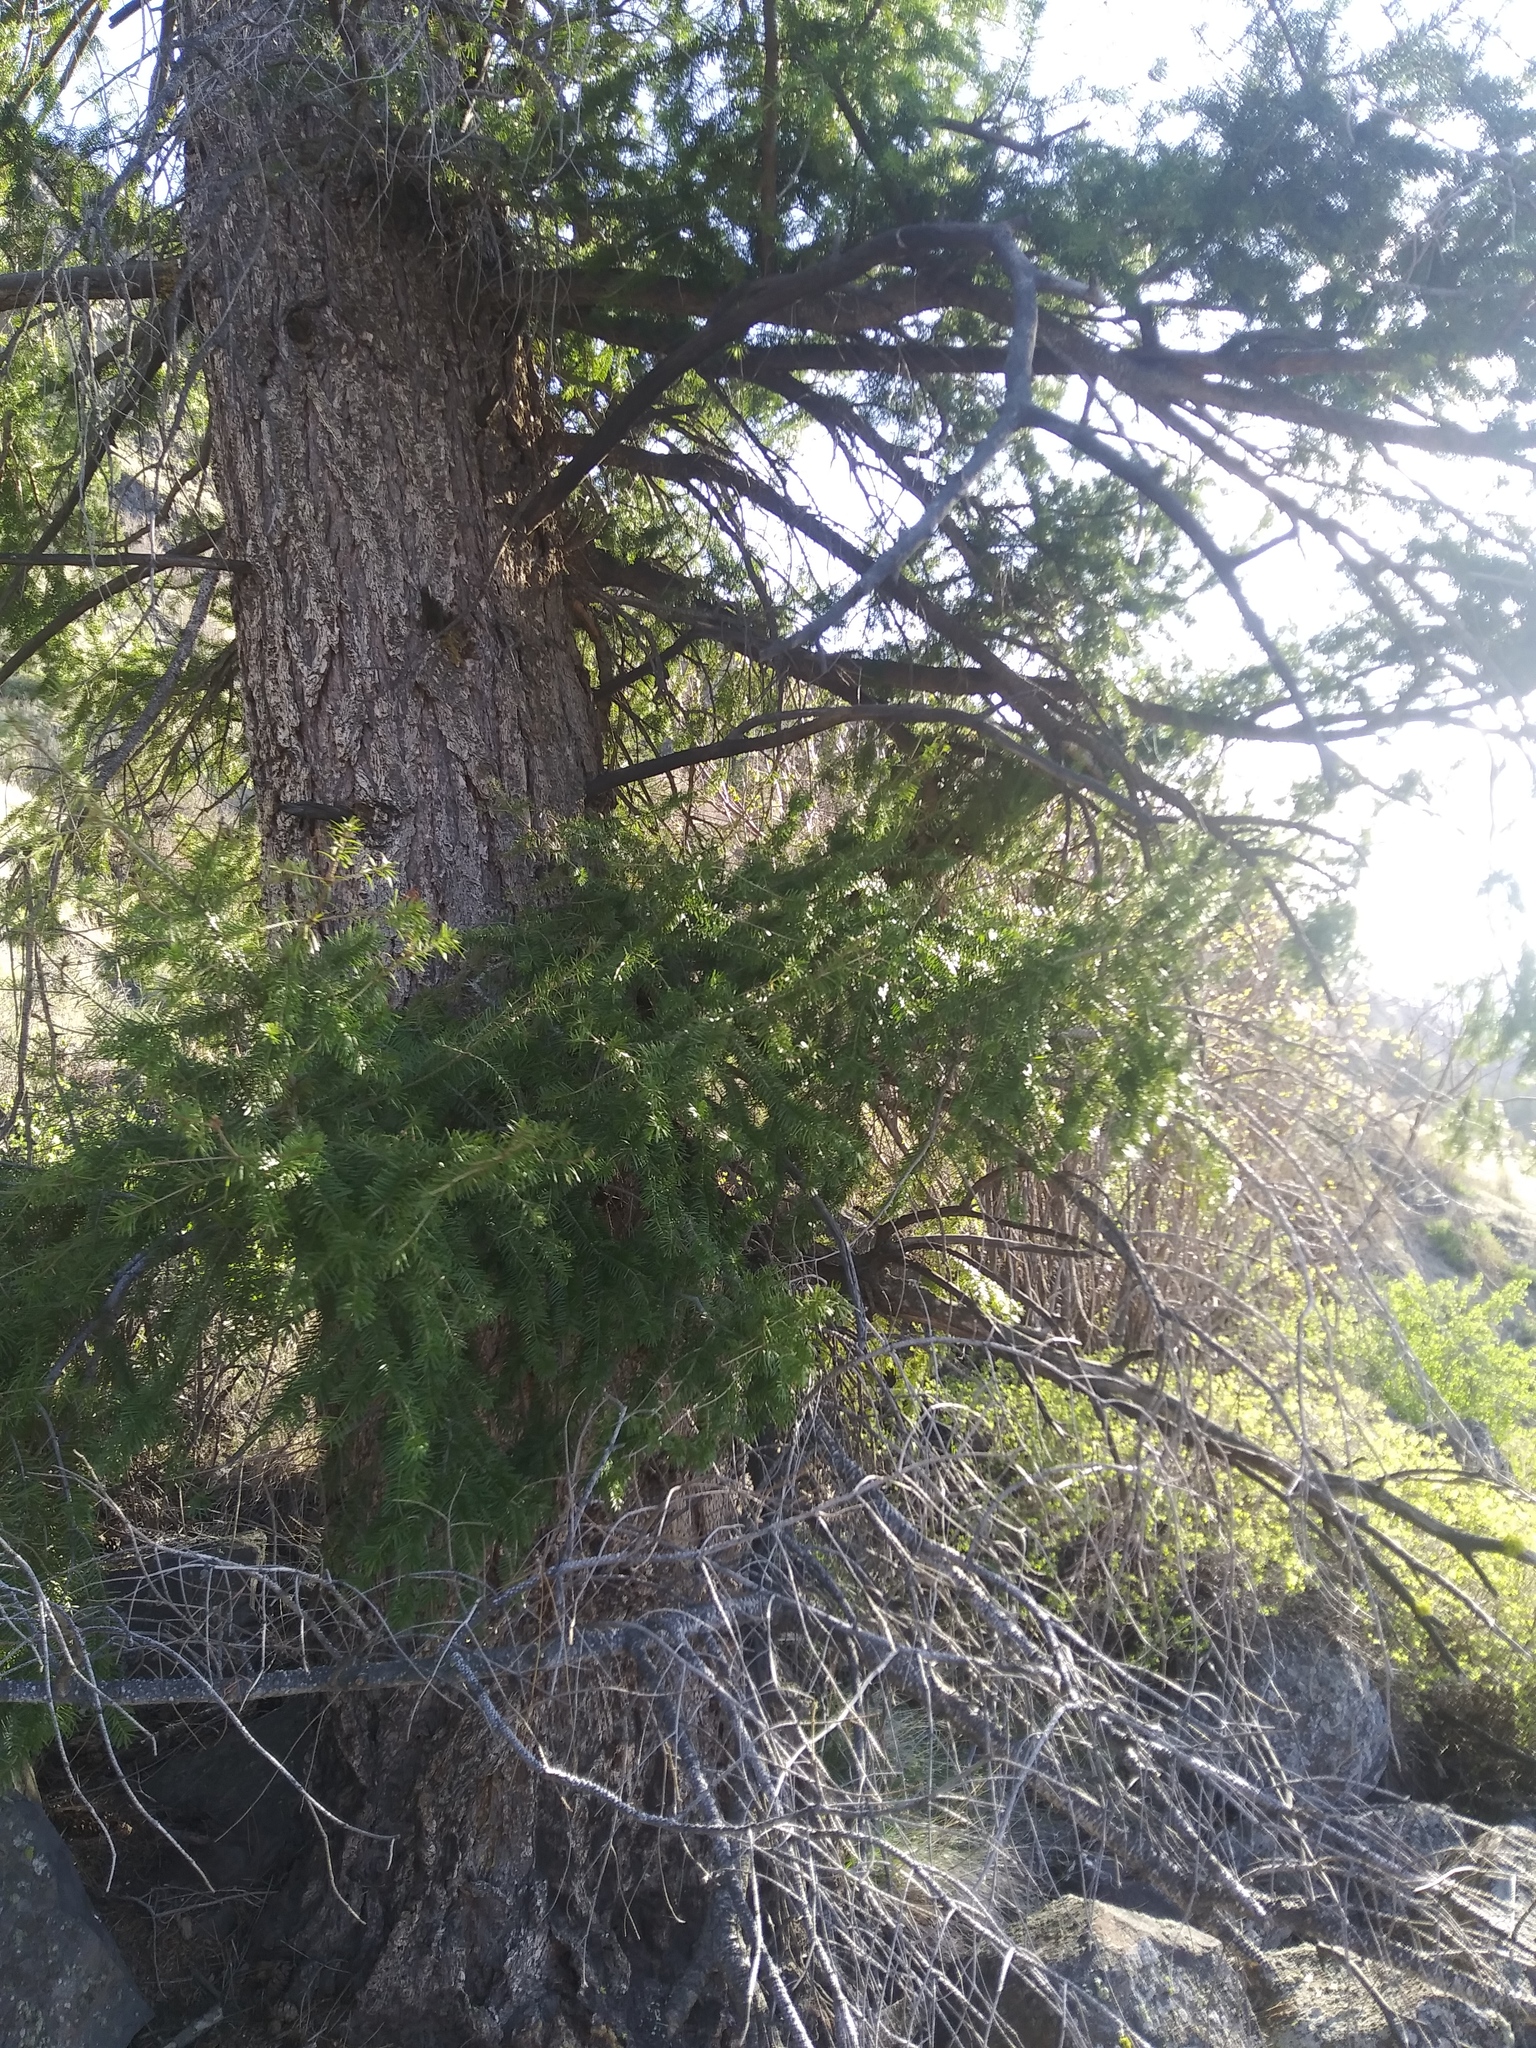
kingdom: Plantae
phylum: Tracheophyta
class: Pinopsida
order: Pinales
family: Pinaceae
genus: Pseudotsuga
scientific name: Pseudotsuga menziesii
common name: Douglas fir
